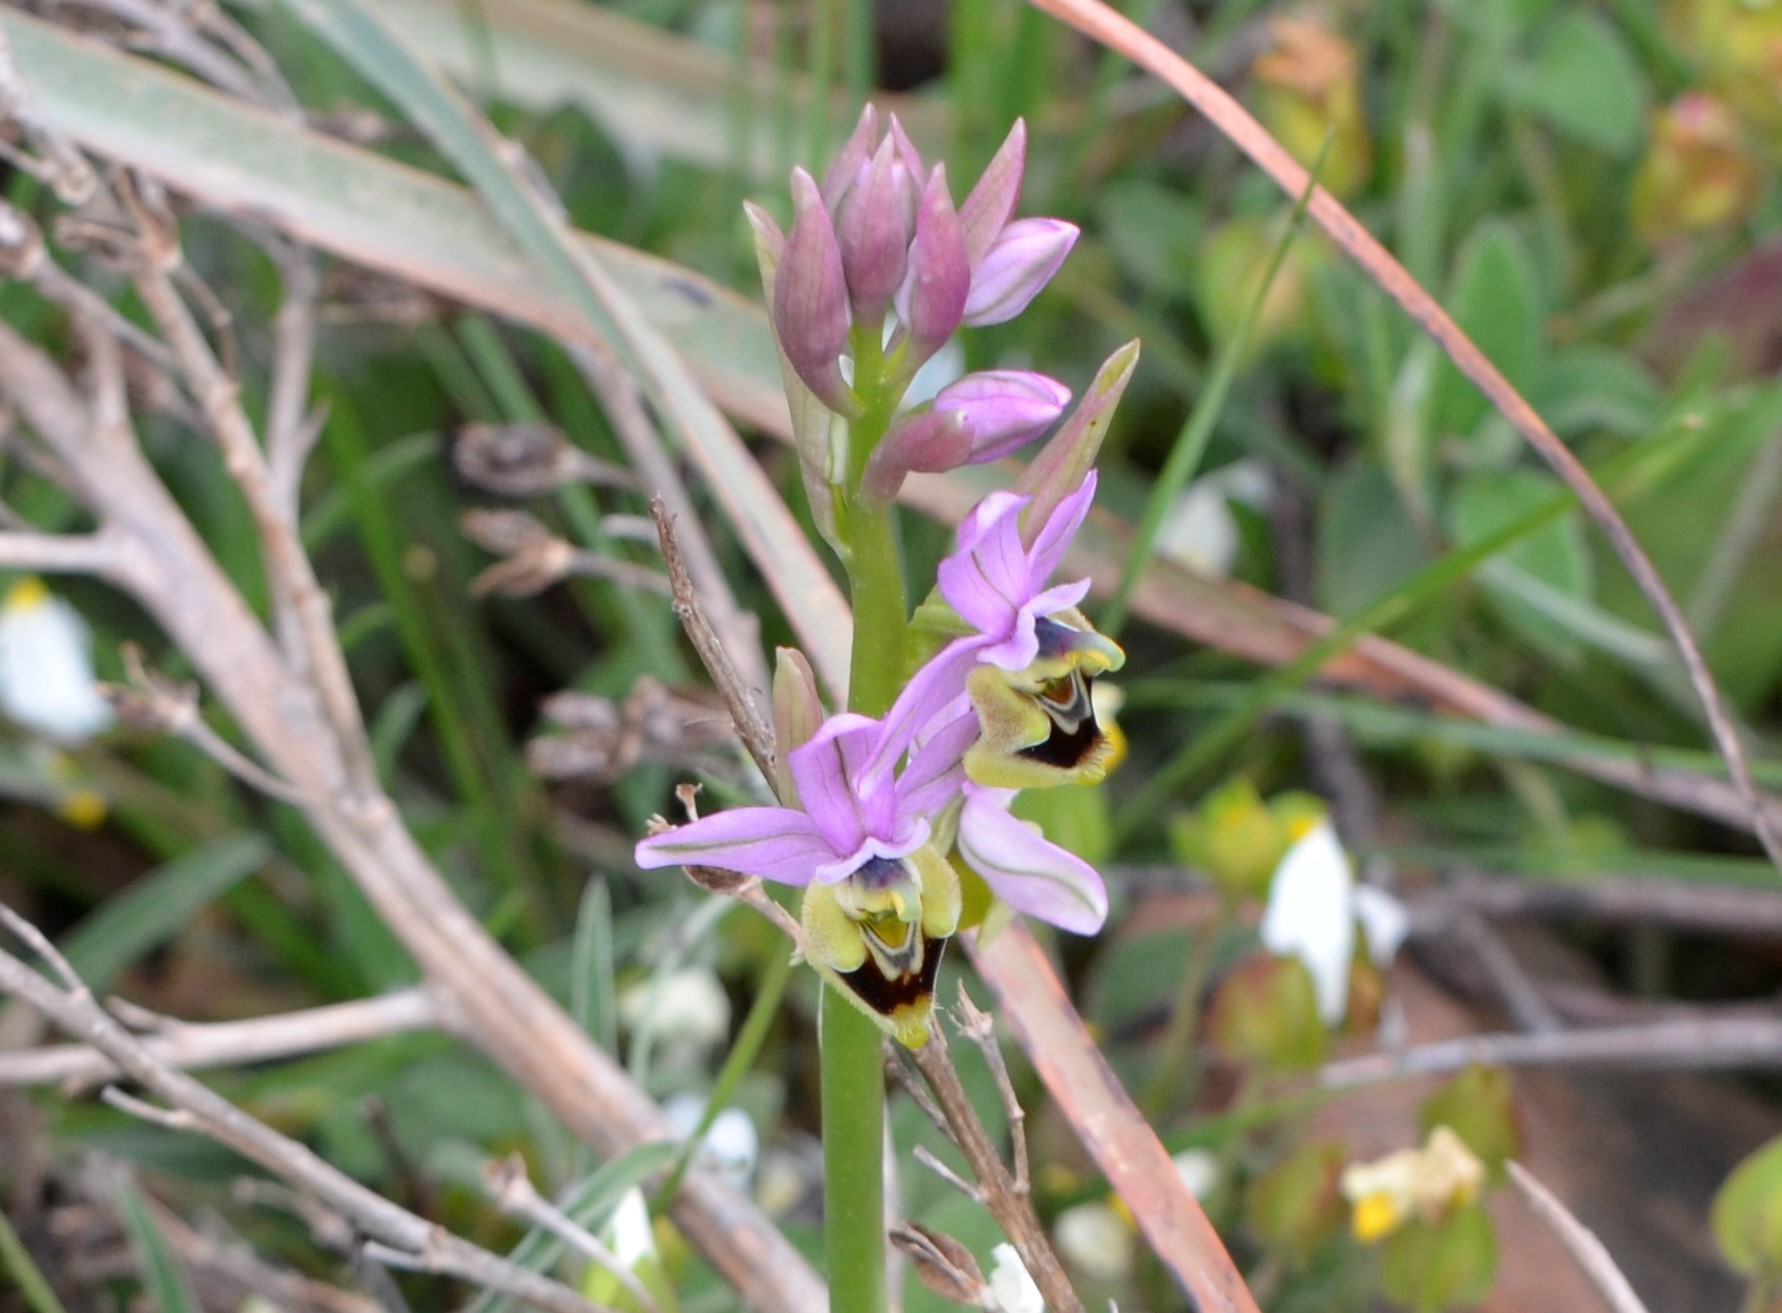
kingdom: Plantae
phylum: Tracheophyta
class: Liliopsida
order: Asparagales
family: Orchidaceae
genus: Ophrys
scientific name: Ophrys tenthredinifera
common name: Sawfly orchid
